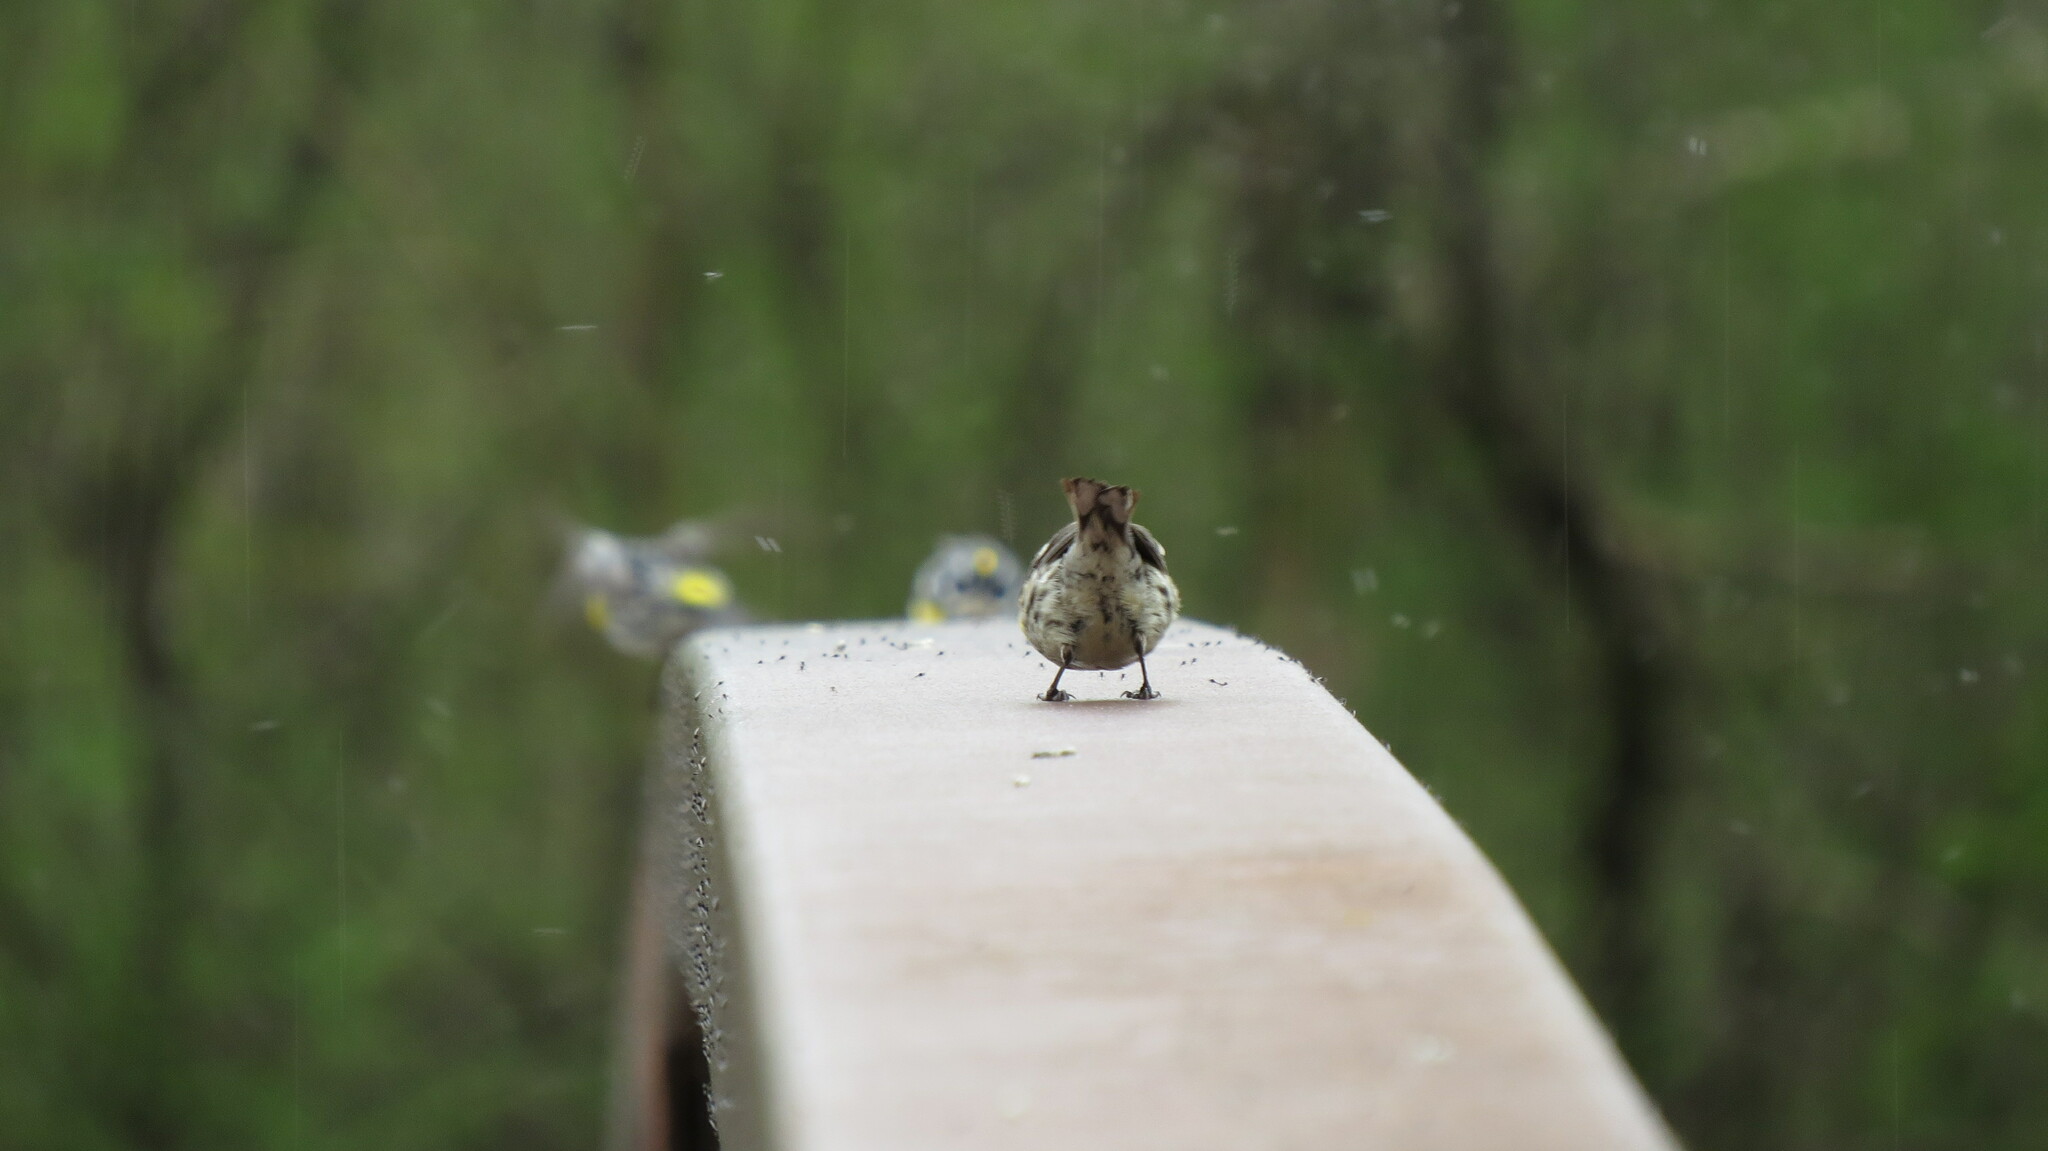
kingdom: Animalia
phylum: Chordata
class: Aves
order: Passeriformes
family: Parulidae
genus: Setophaga
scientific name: Setophaga coronata
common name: Myrtle warbler
